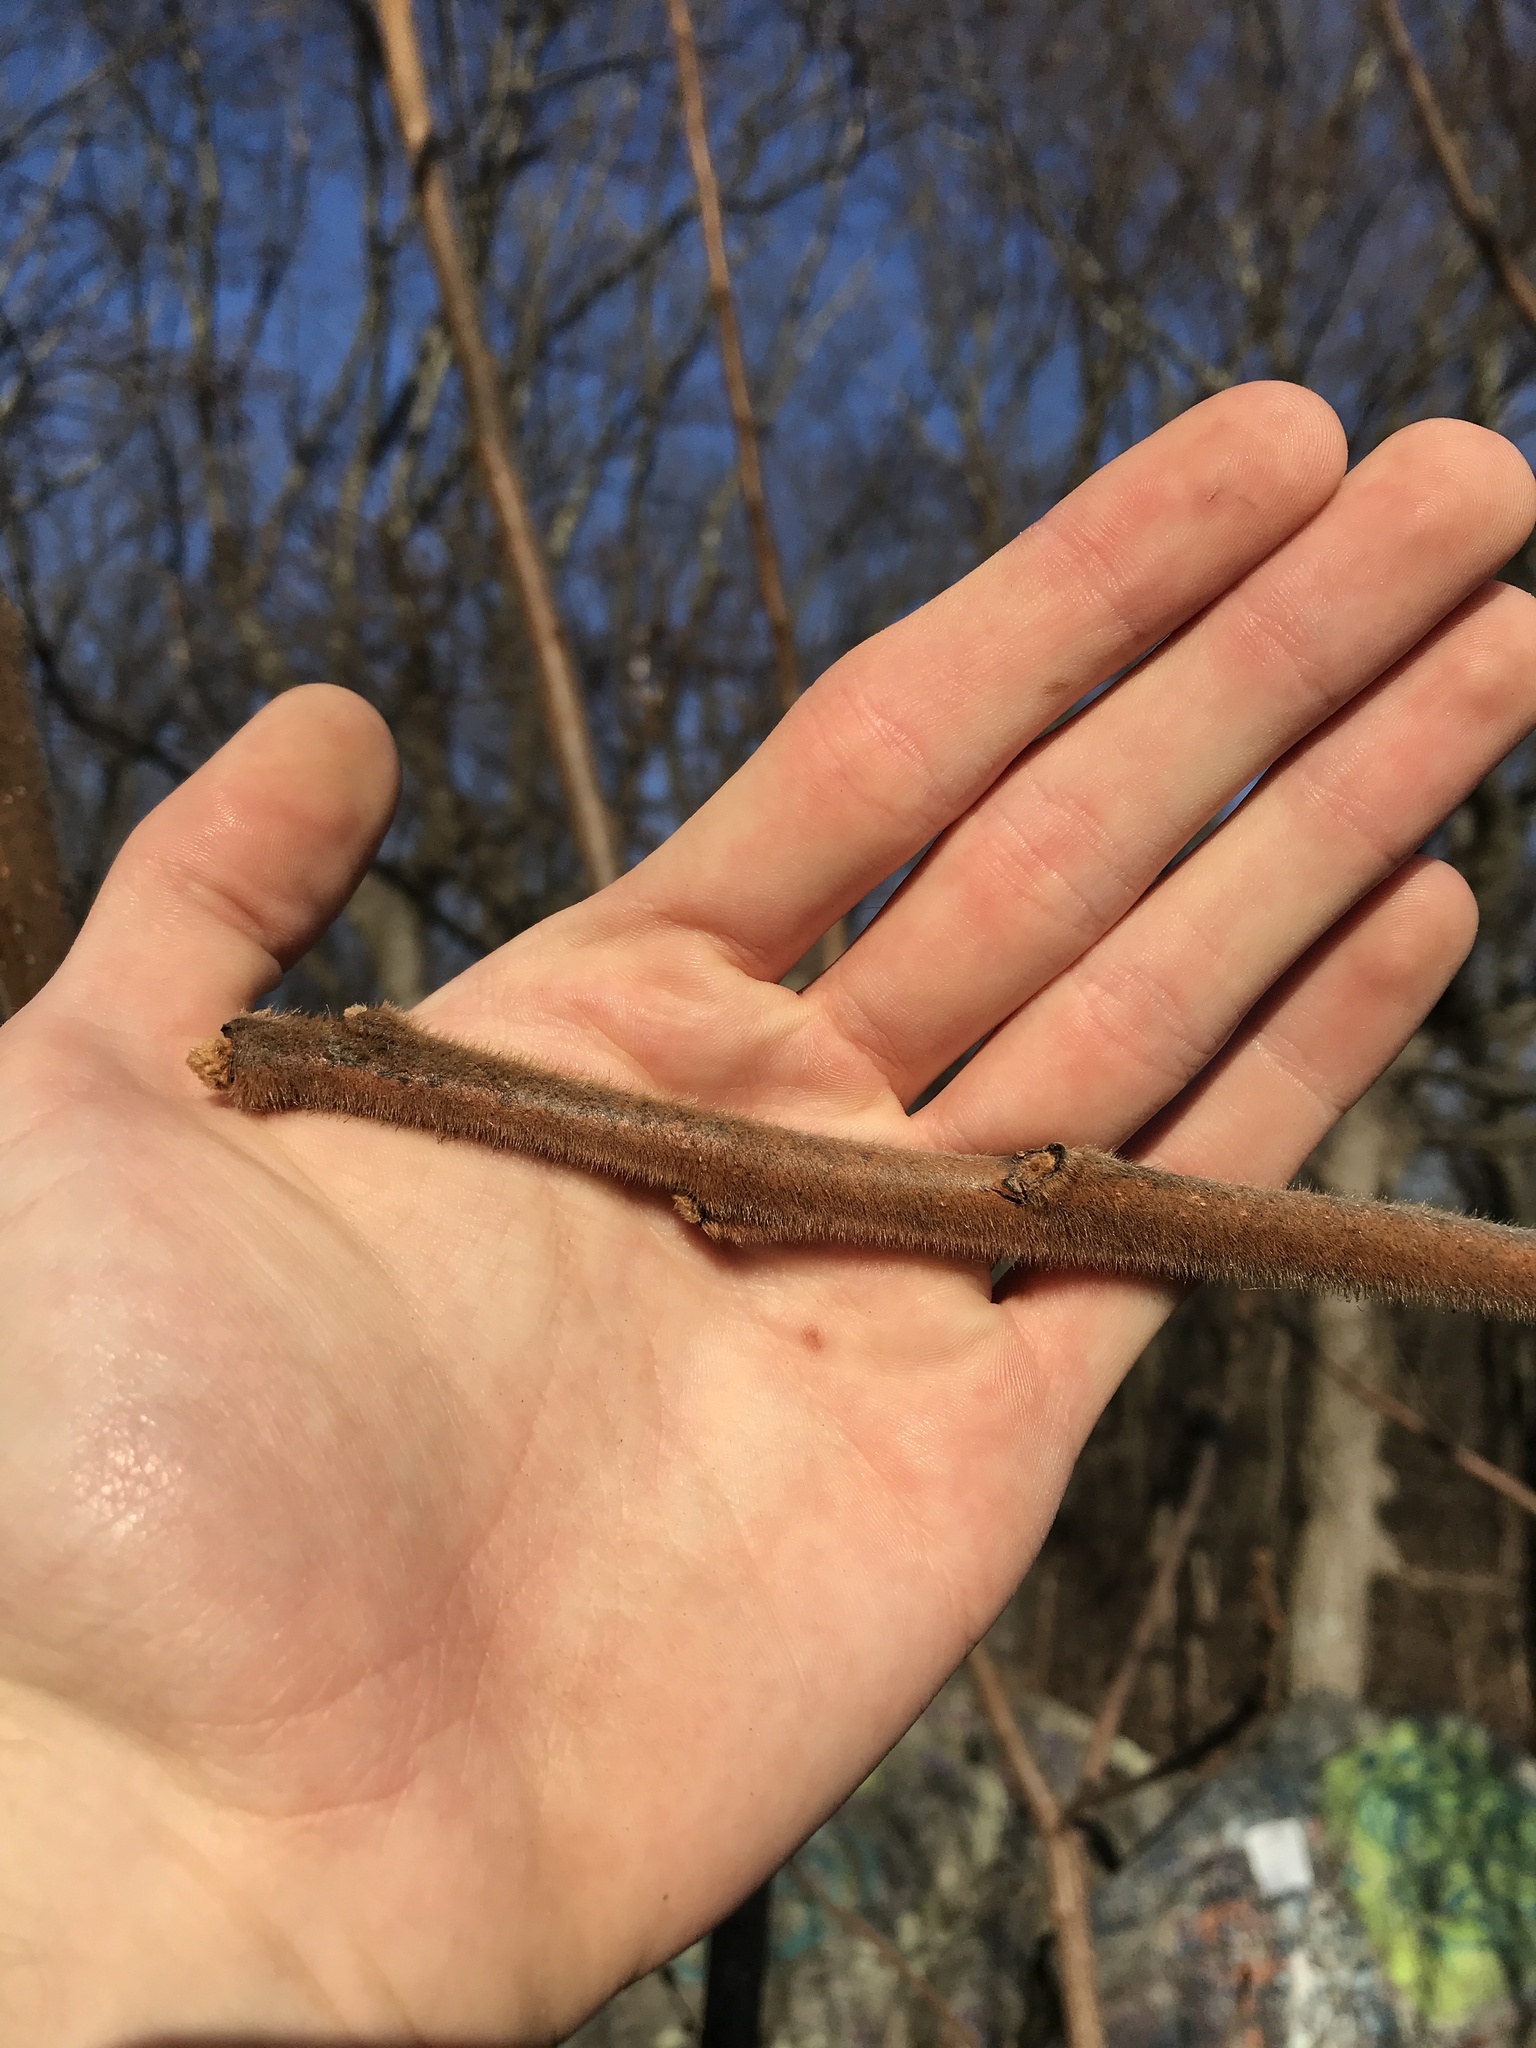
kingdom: Plantae
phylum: Tracheophyta
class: Magnoliopsida
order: Sapindales
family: Anacardiaceae
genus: Rhus
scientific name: Rhus typhina
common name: Staghorn sumac
